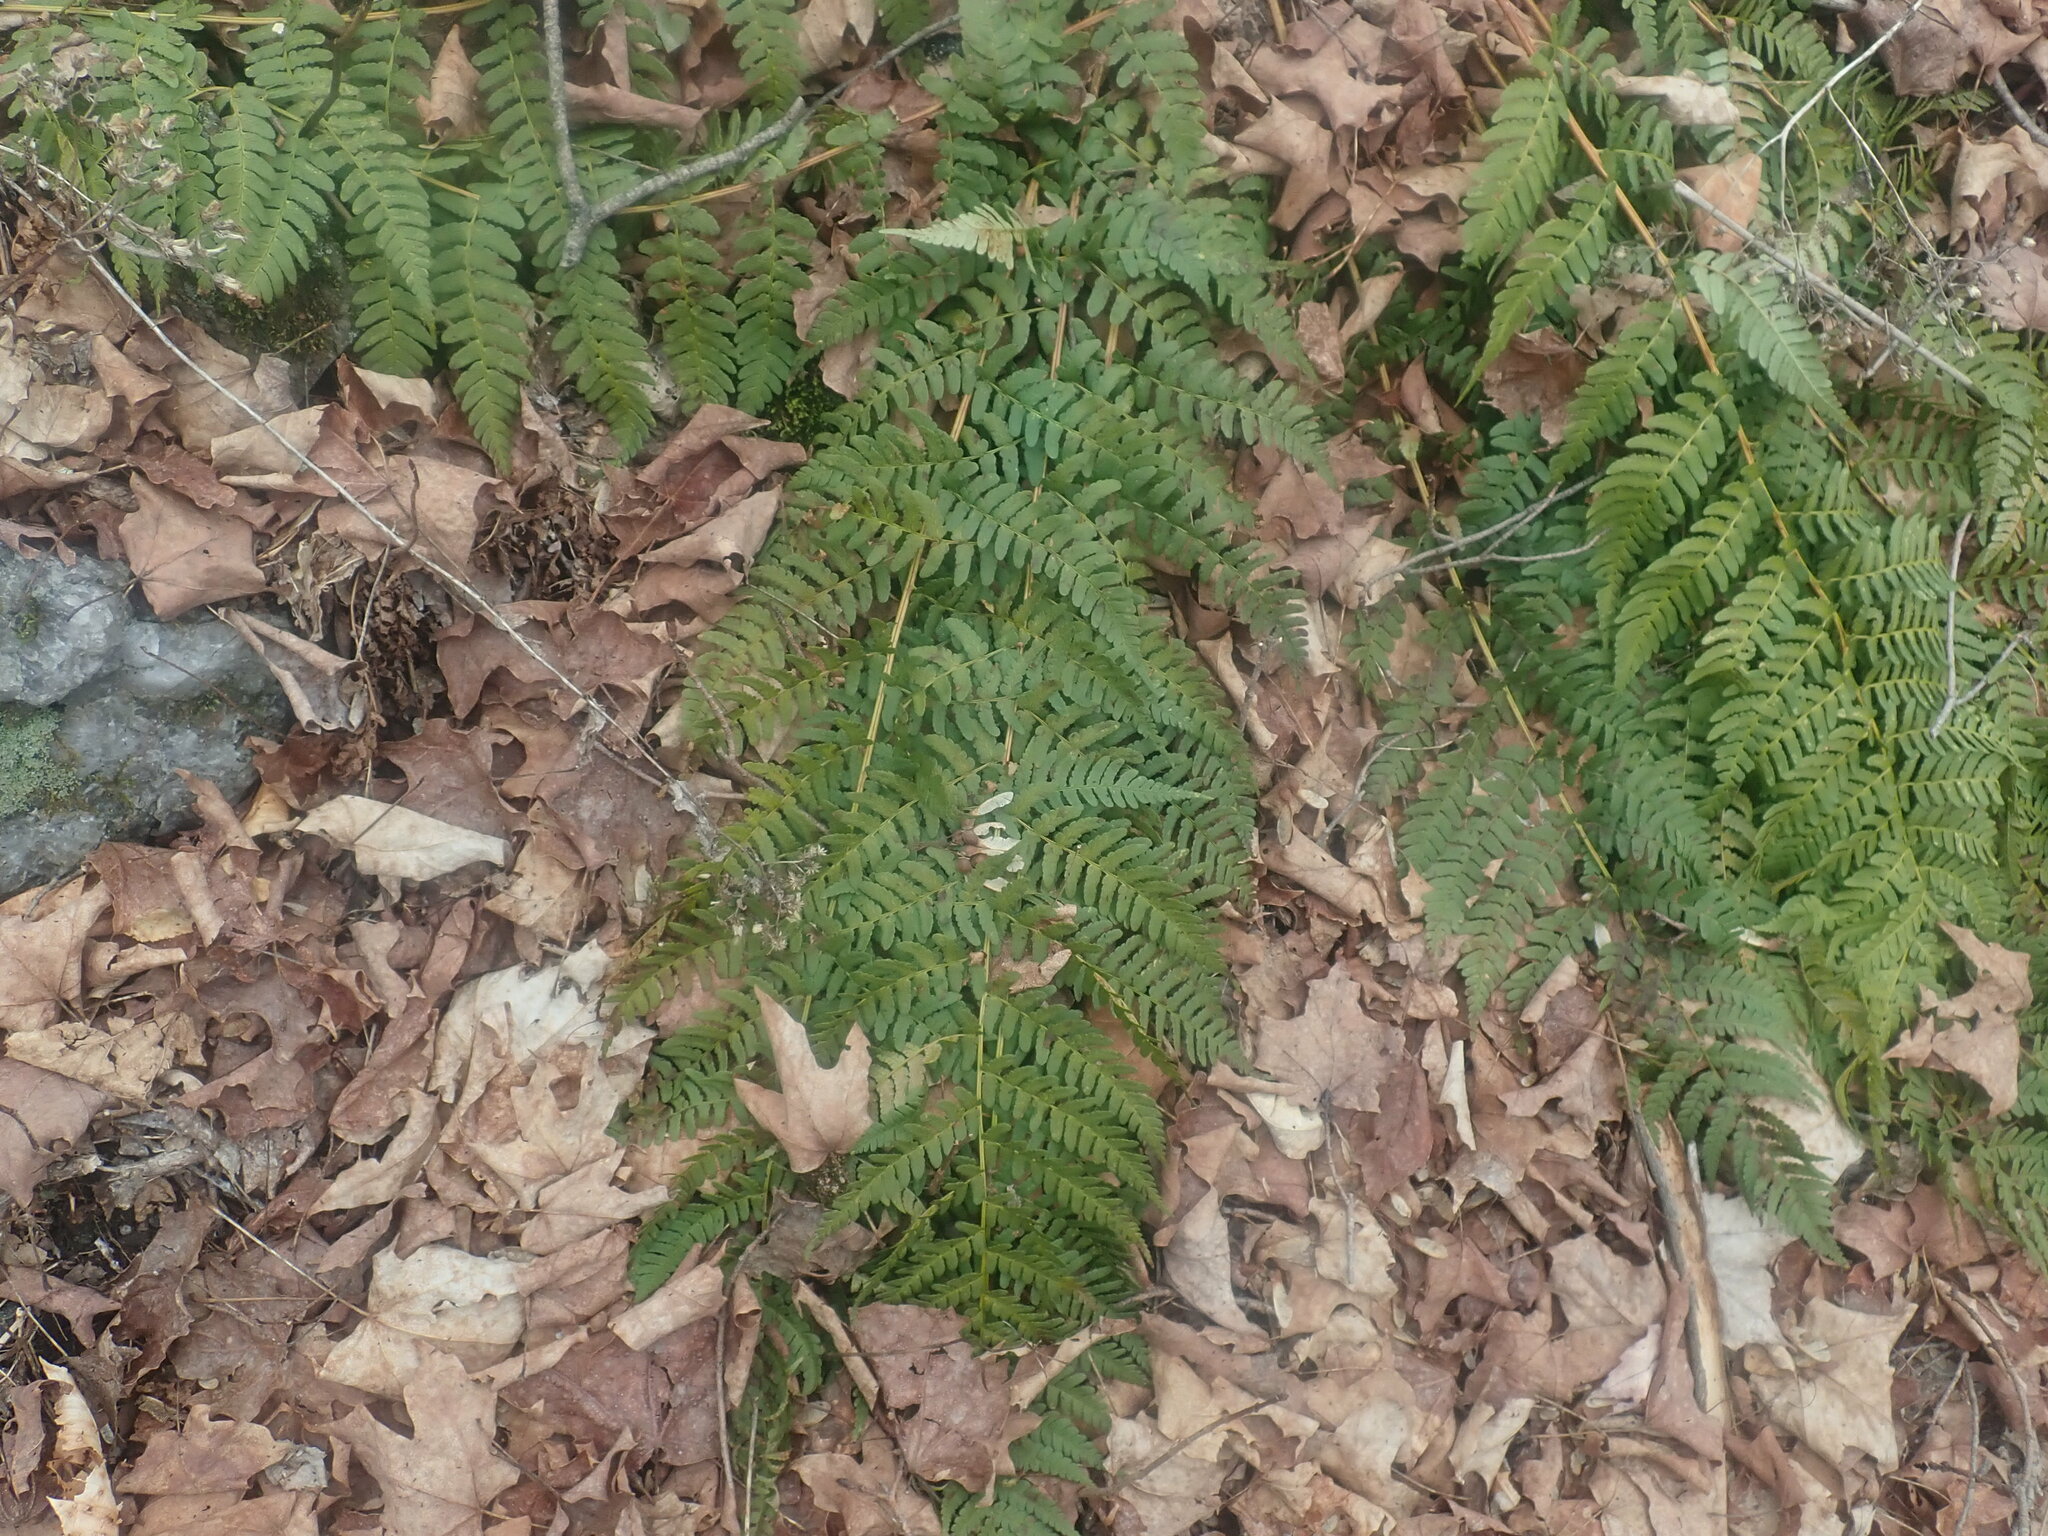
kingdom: Plantae
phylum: Tracheophyta
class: Polypodiopsida
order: Polypodiales
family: Dryopteridaceae
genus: Dryopteris
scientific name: Dryopteris marginalis
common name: Marginal wood fern
